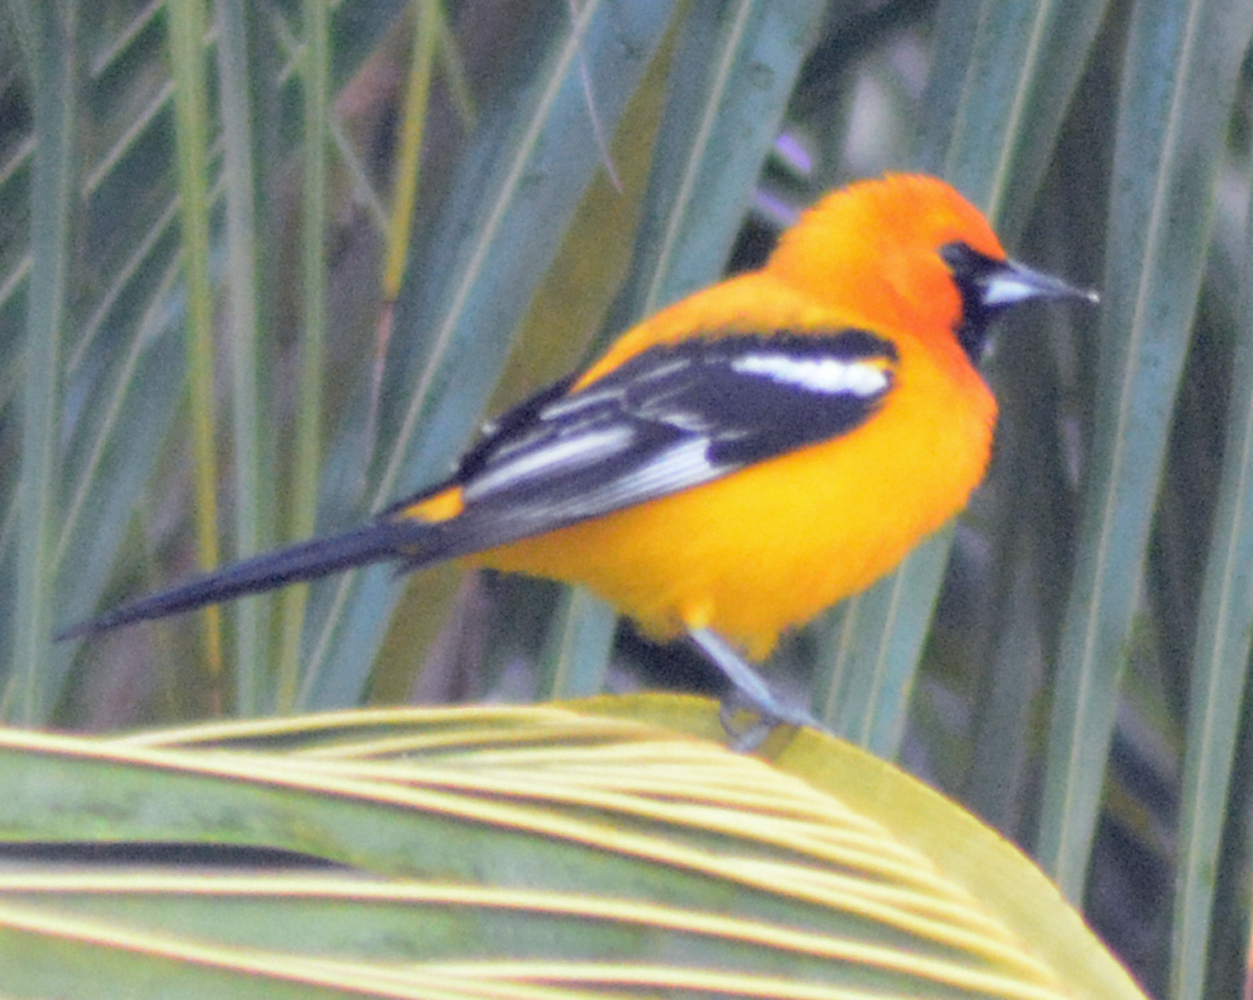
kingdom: Animalia
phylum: Chordata
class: Aves
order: Passeriformes
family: Icteridae
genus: Icterus
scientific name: Icterus auratus
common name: Orange oriole
